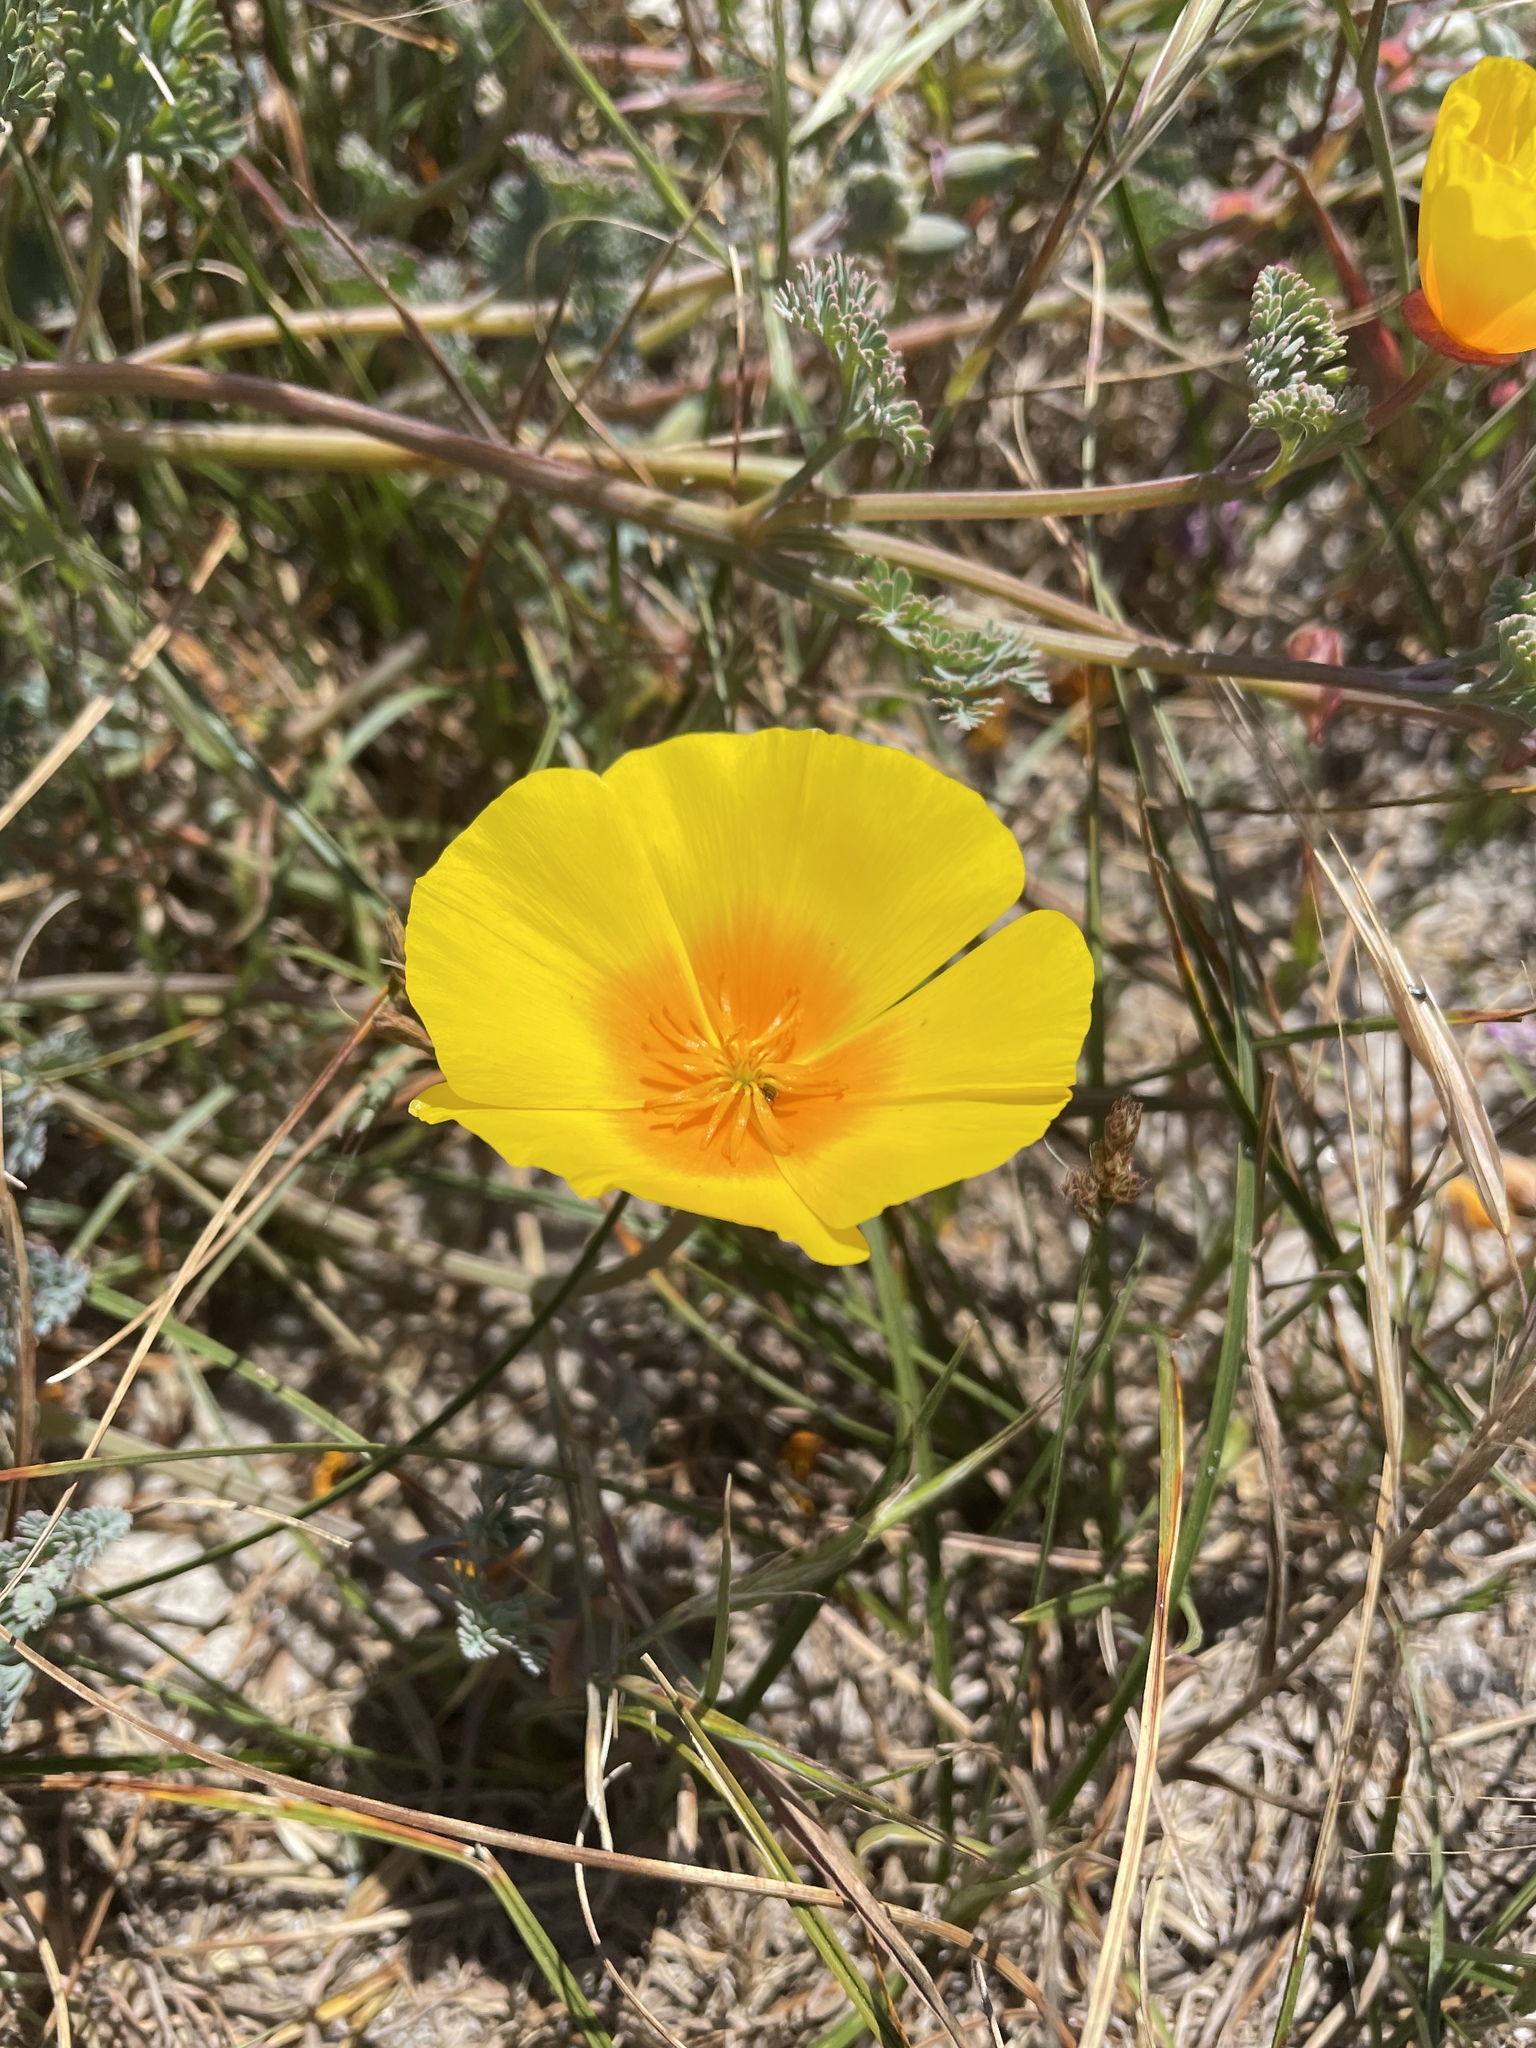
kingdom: Plantae
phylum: Tracheophyta
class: Magnoliopsida
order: Ranunculales
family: Papaveraceae
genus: Eschscholzia
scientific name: Eschscholzia californica
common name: California poppy
